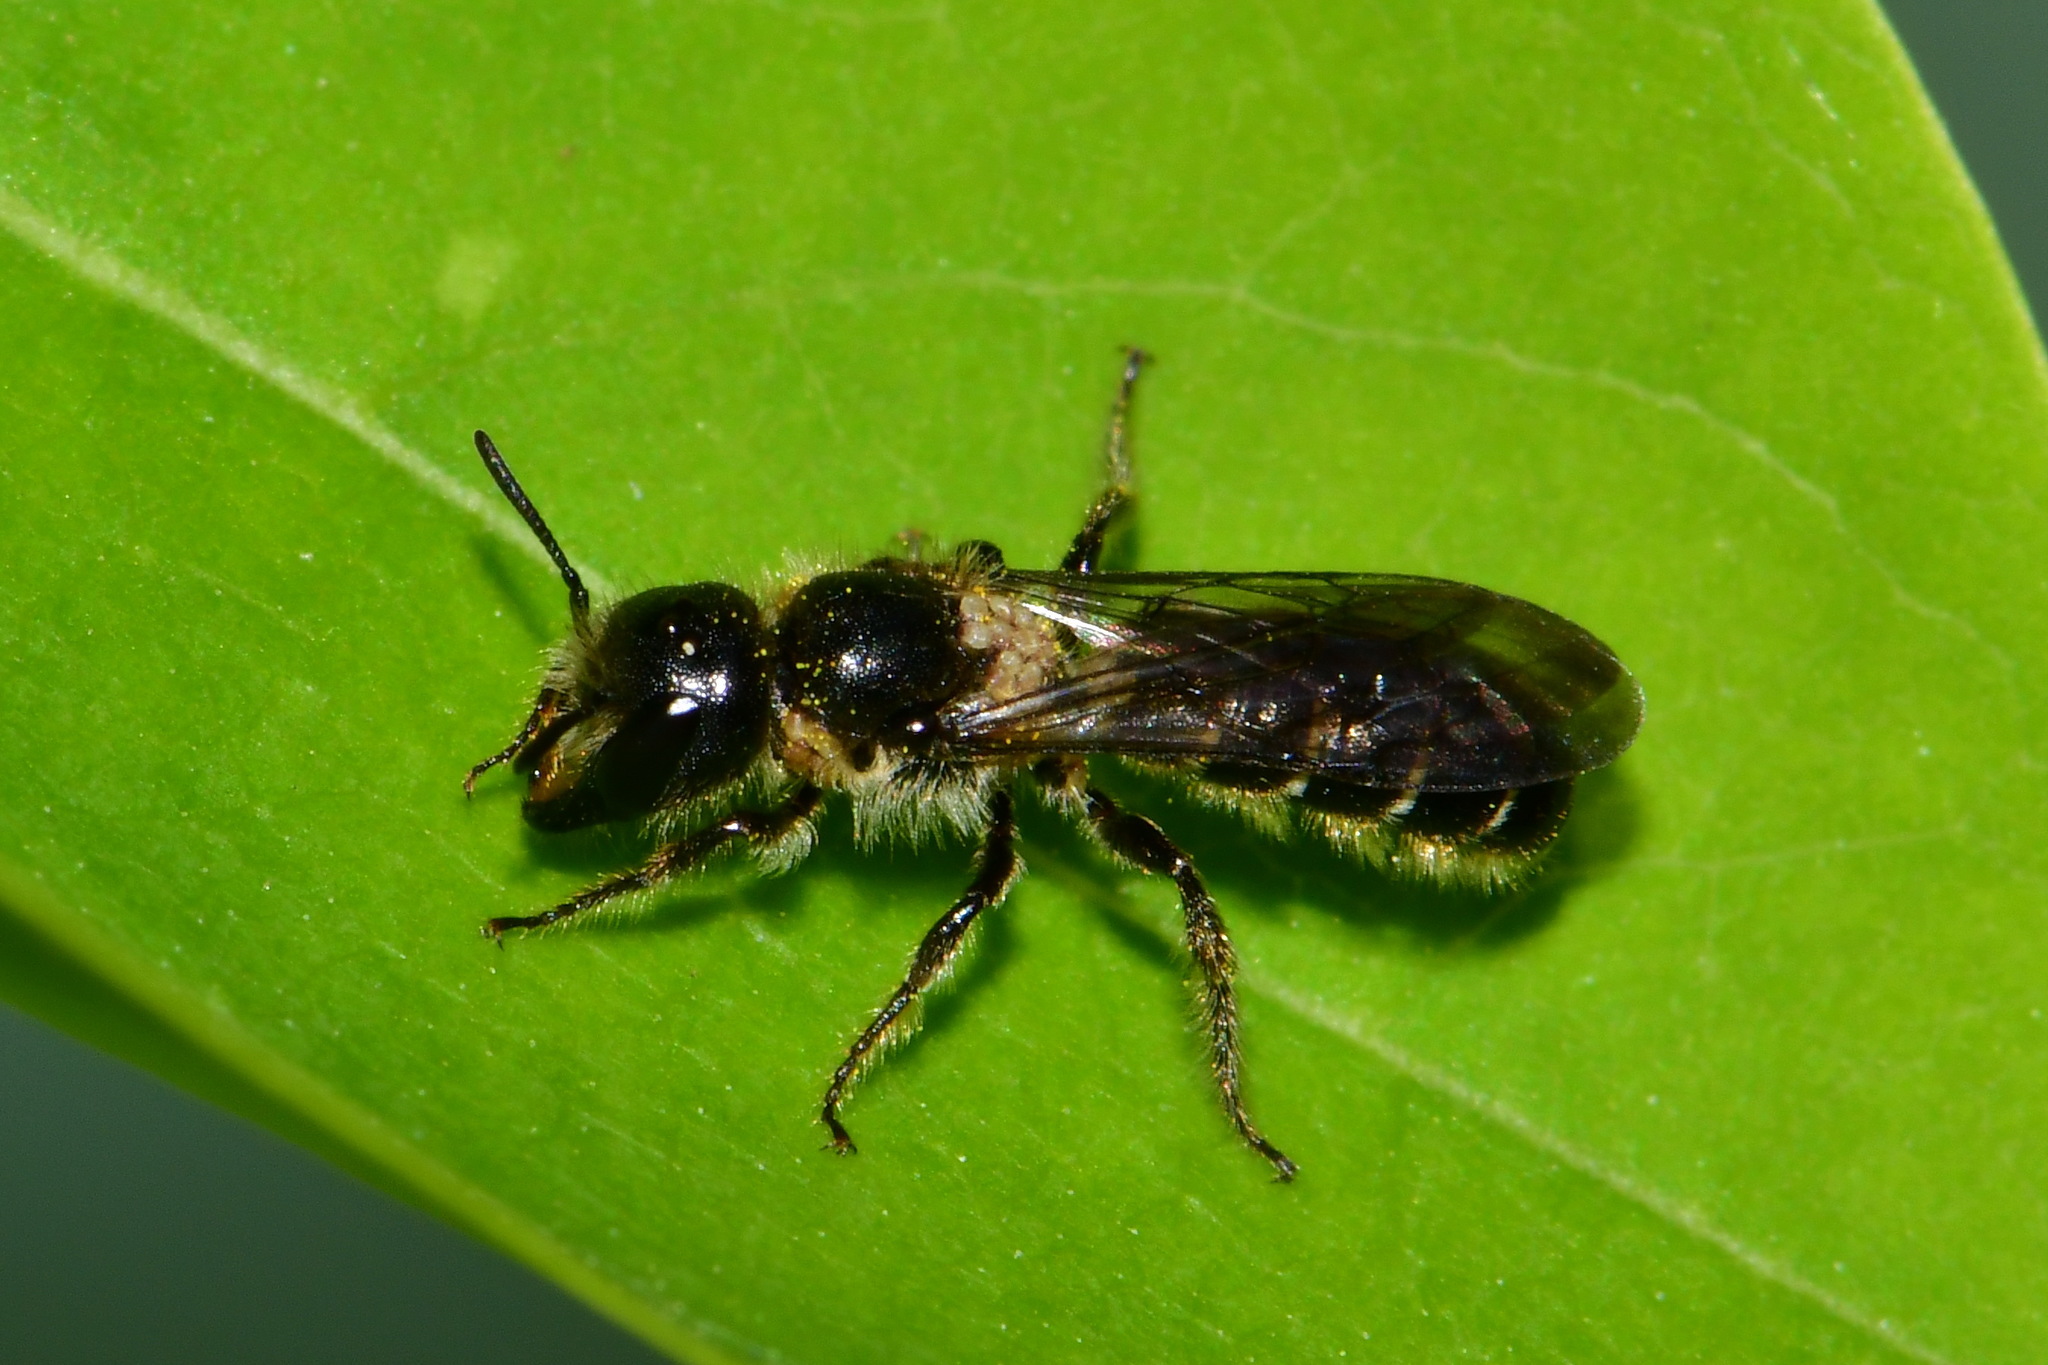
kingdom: Animalia
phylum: Arthropoda
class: Insecta
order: Hymenoptera
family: Megachilidae
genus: Chelostoma
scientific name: Chelostoma florisomne
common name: Sleepy carpenter bee
